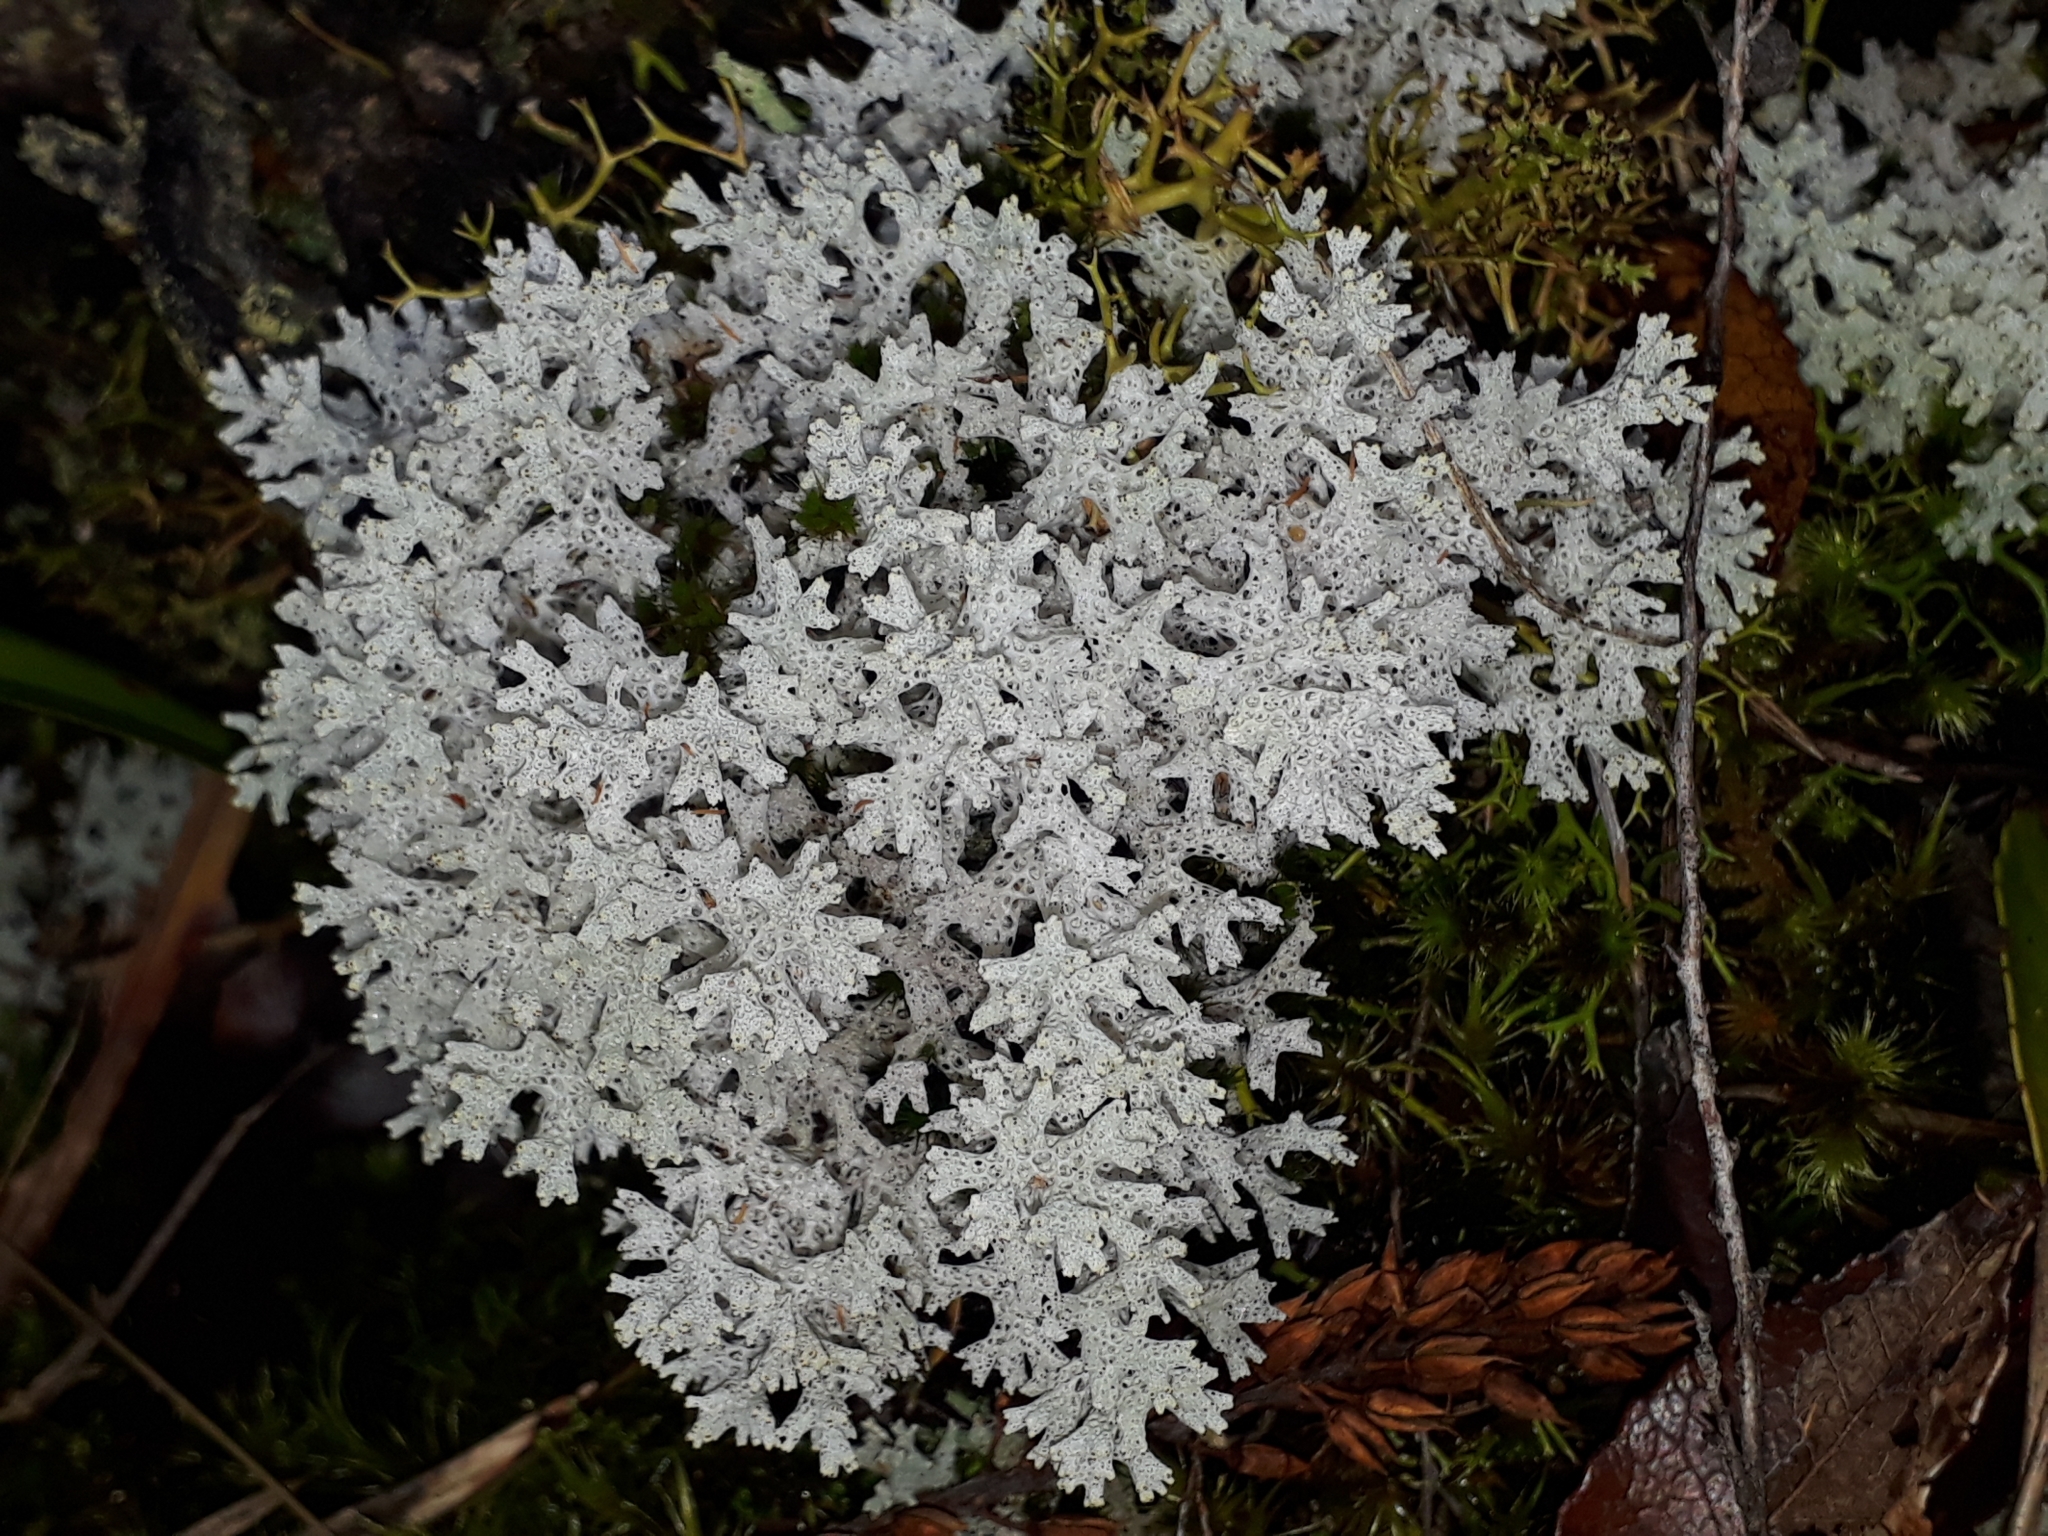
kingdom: Fungi
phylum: Ascomycota
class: Lecanoromycetes
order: Lecanorales
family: Cladoniaceae
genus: Pulchrocladia
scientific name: Pulchrocladia retipora
